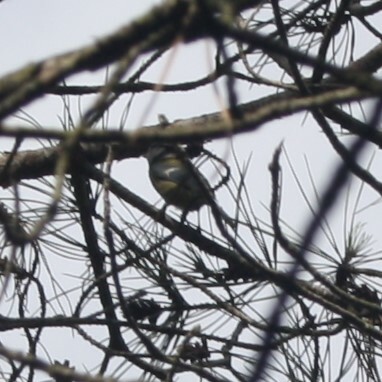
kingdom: Animalia
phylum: Chordata
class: Aves
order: Passeriformes
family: Paridae
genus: Cyanistes
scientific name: Cyanistes caeruleus
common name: Eurasian blue tit
